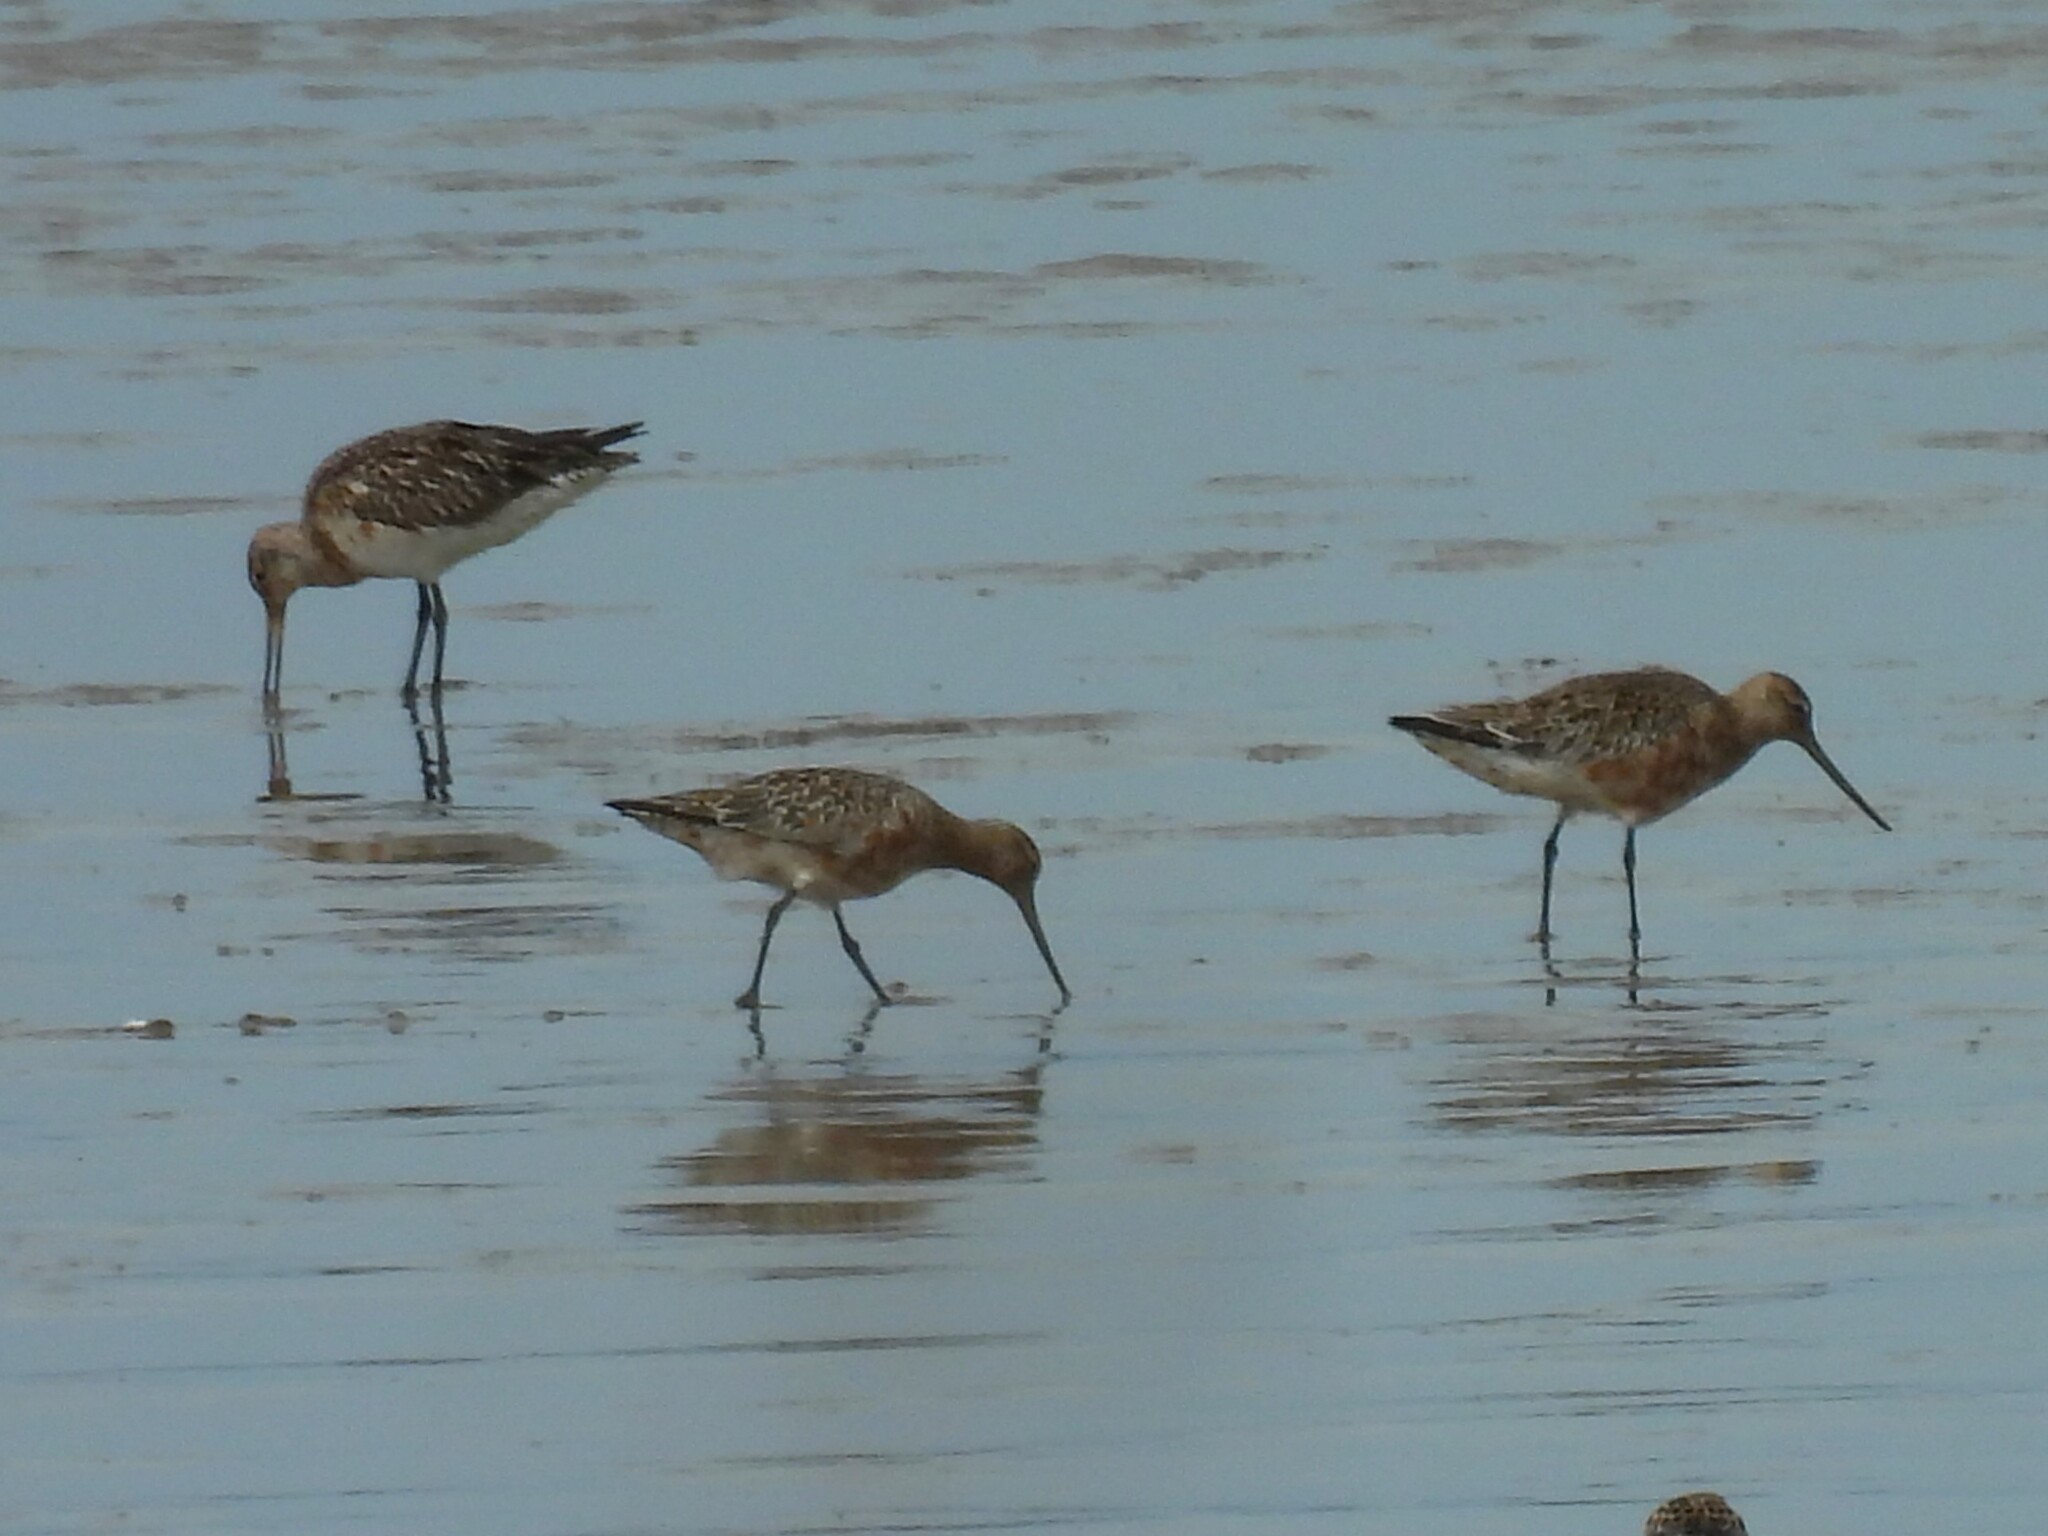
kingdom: Animalia
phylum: Chordata
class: Aves
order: Charadriiformes
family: Scolopacidae
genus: Limosa
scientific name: Limosa lapponica
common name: Bar-tailed godwit
